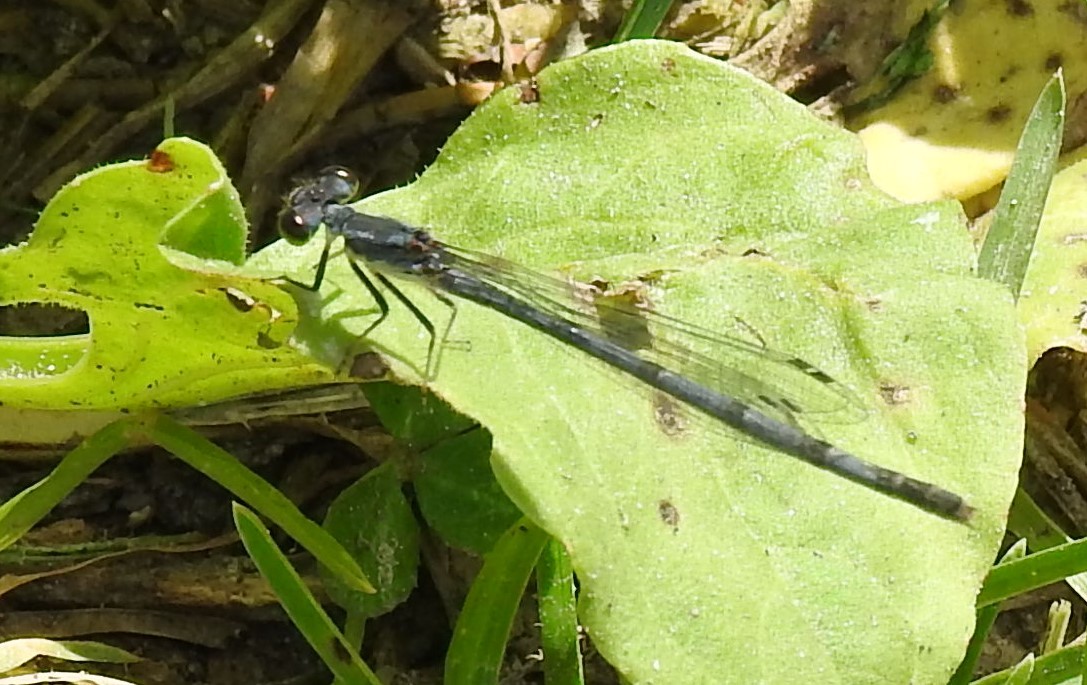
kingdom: Animalia
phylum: Arthropoda
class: Insecta
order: Odonata
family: Coenagrionidae
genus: Ischnura
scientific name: Ischnura posita
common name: Fragile forktail
